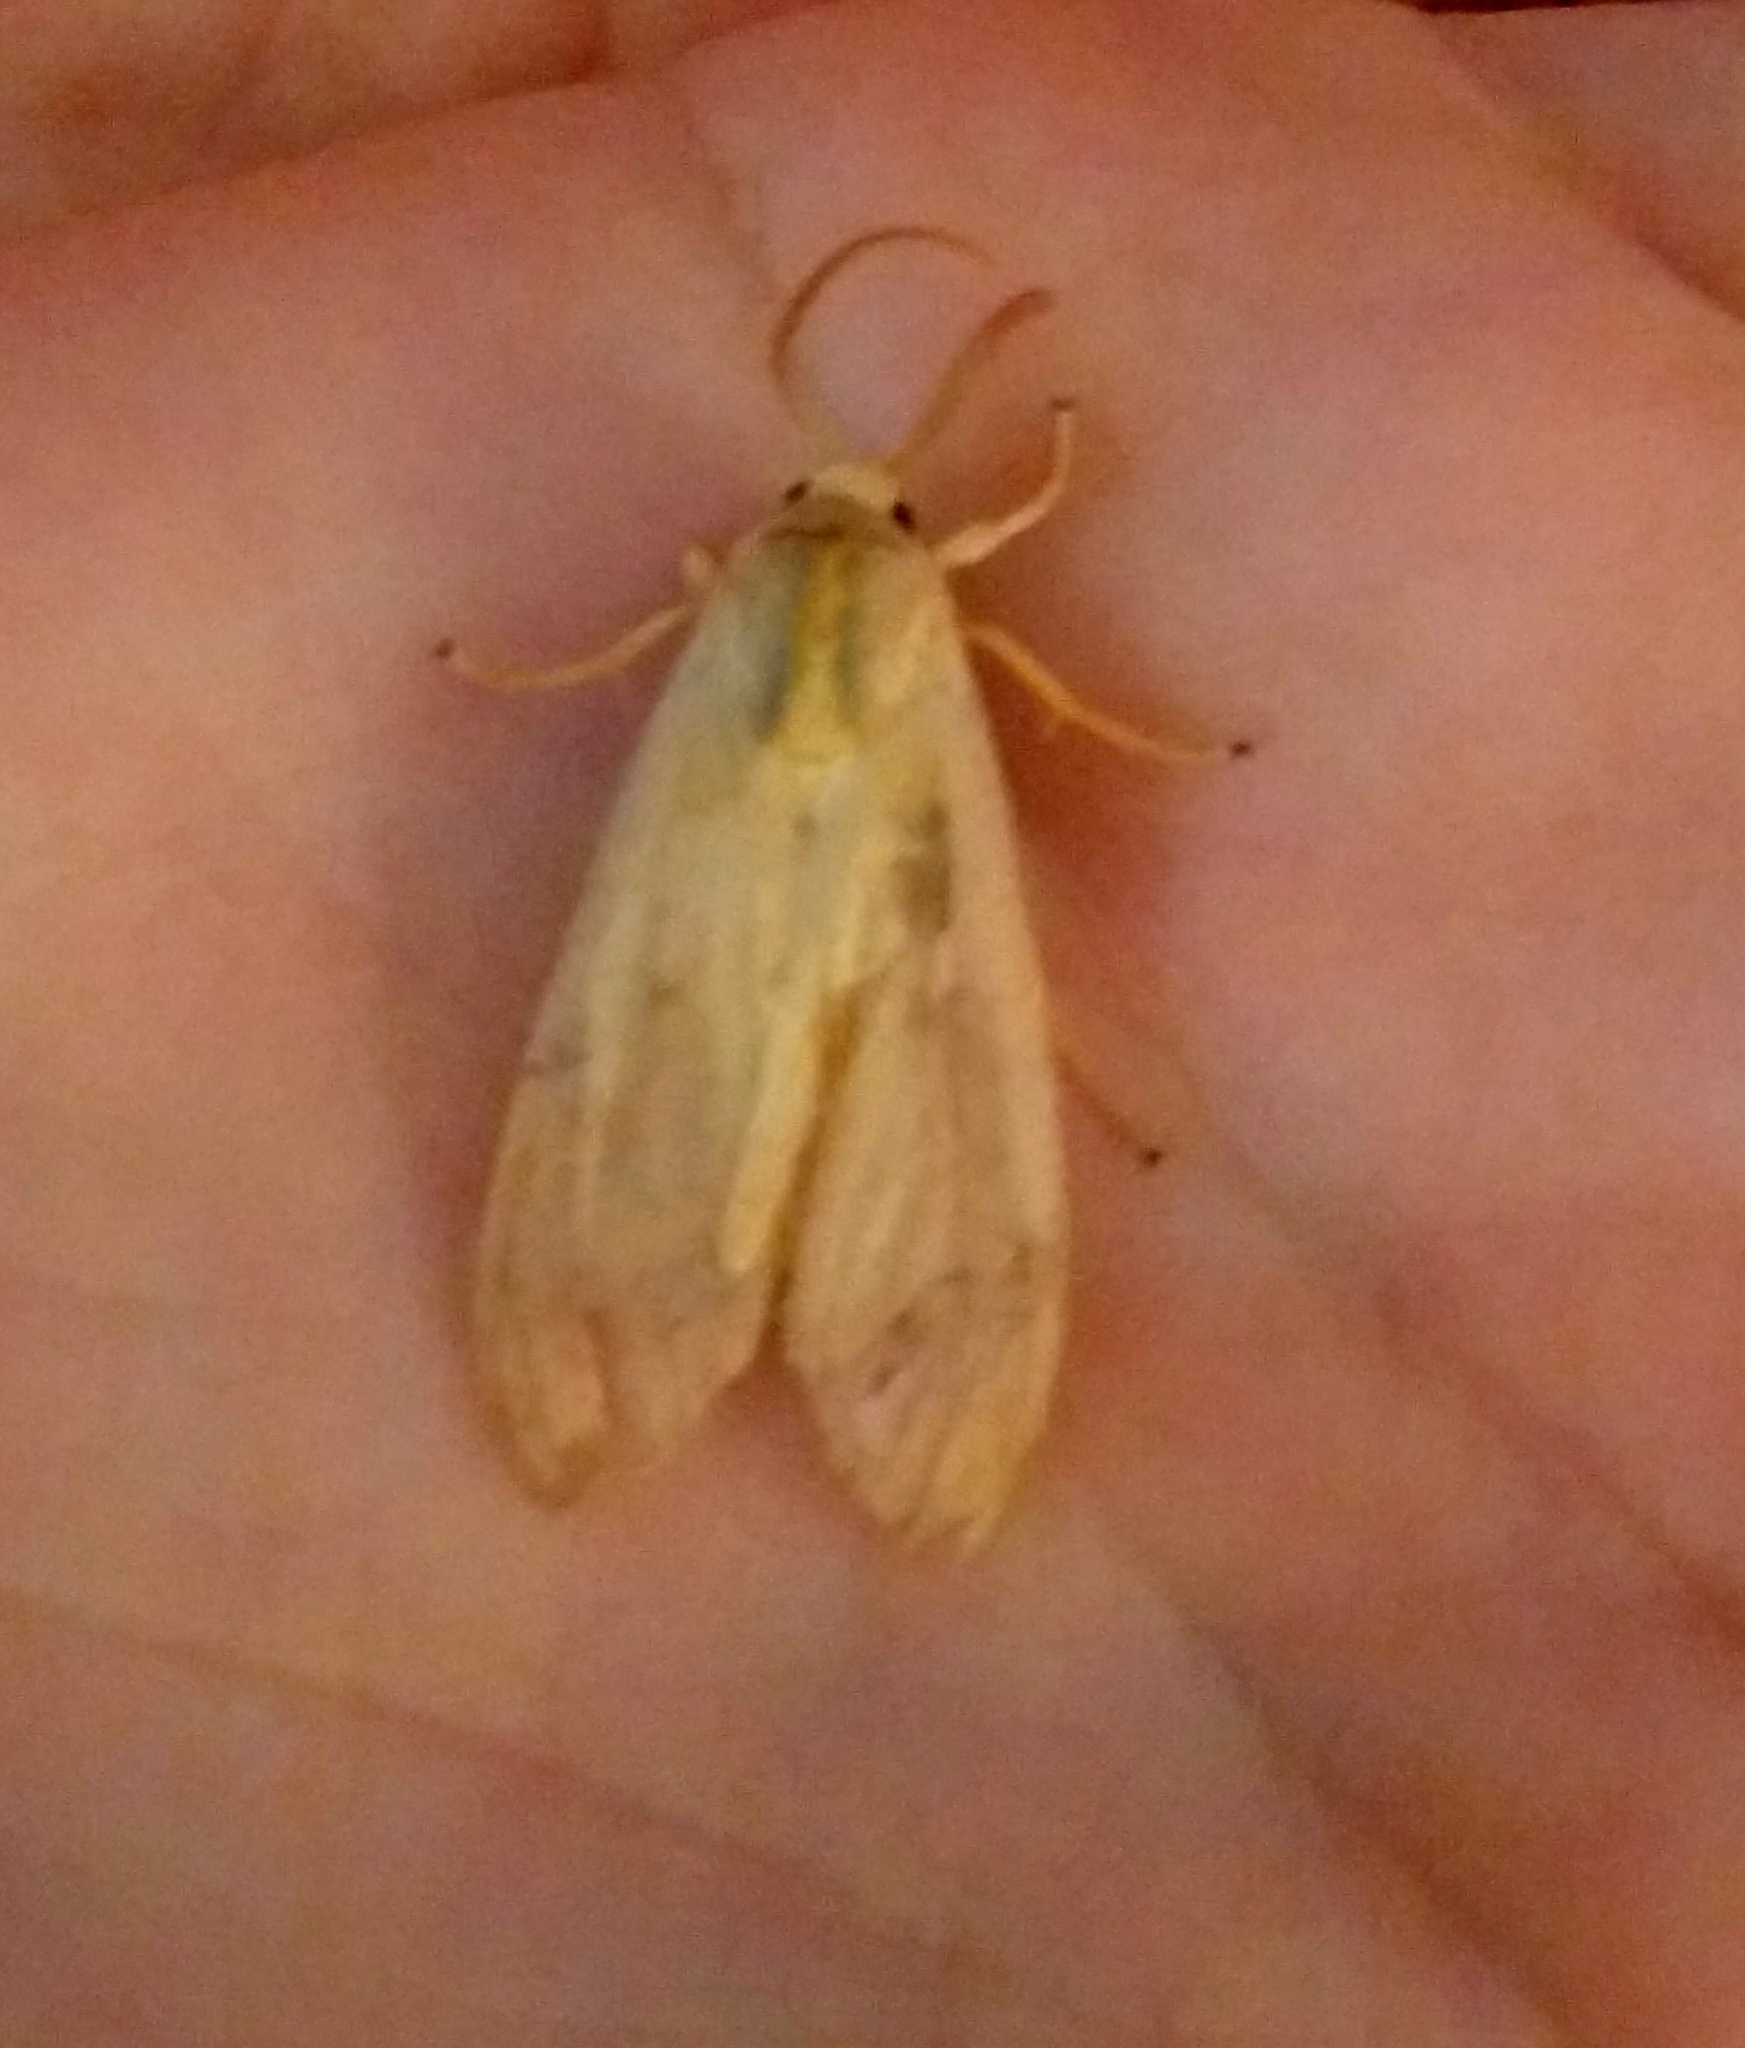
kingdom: Animalia
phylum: Arthropoda
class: Insecta
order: Lepidoptera
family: Erebidae
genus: Halysidota
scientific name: Halysidota
